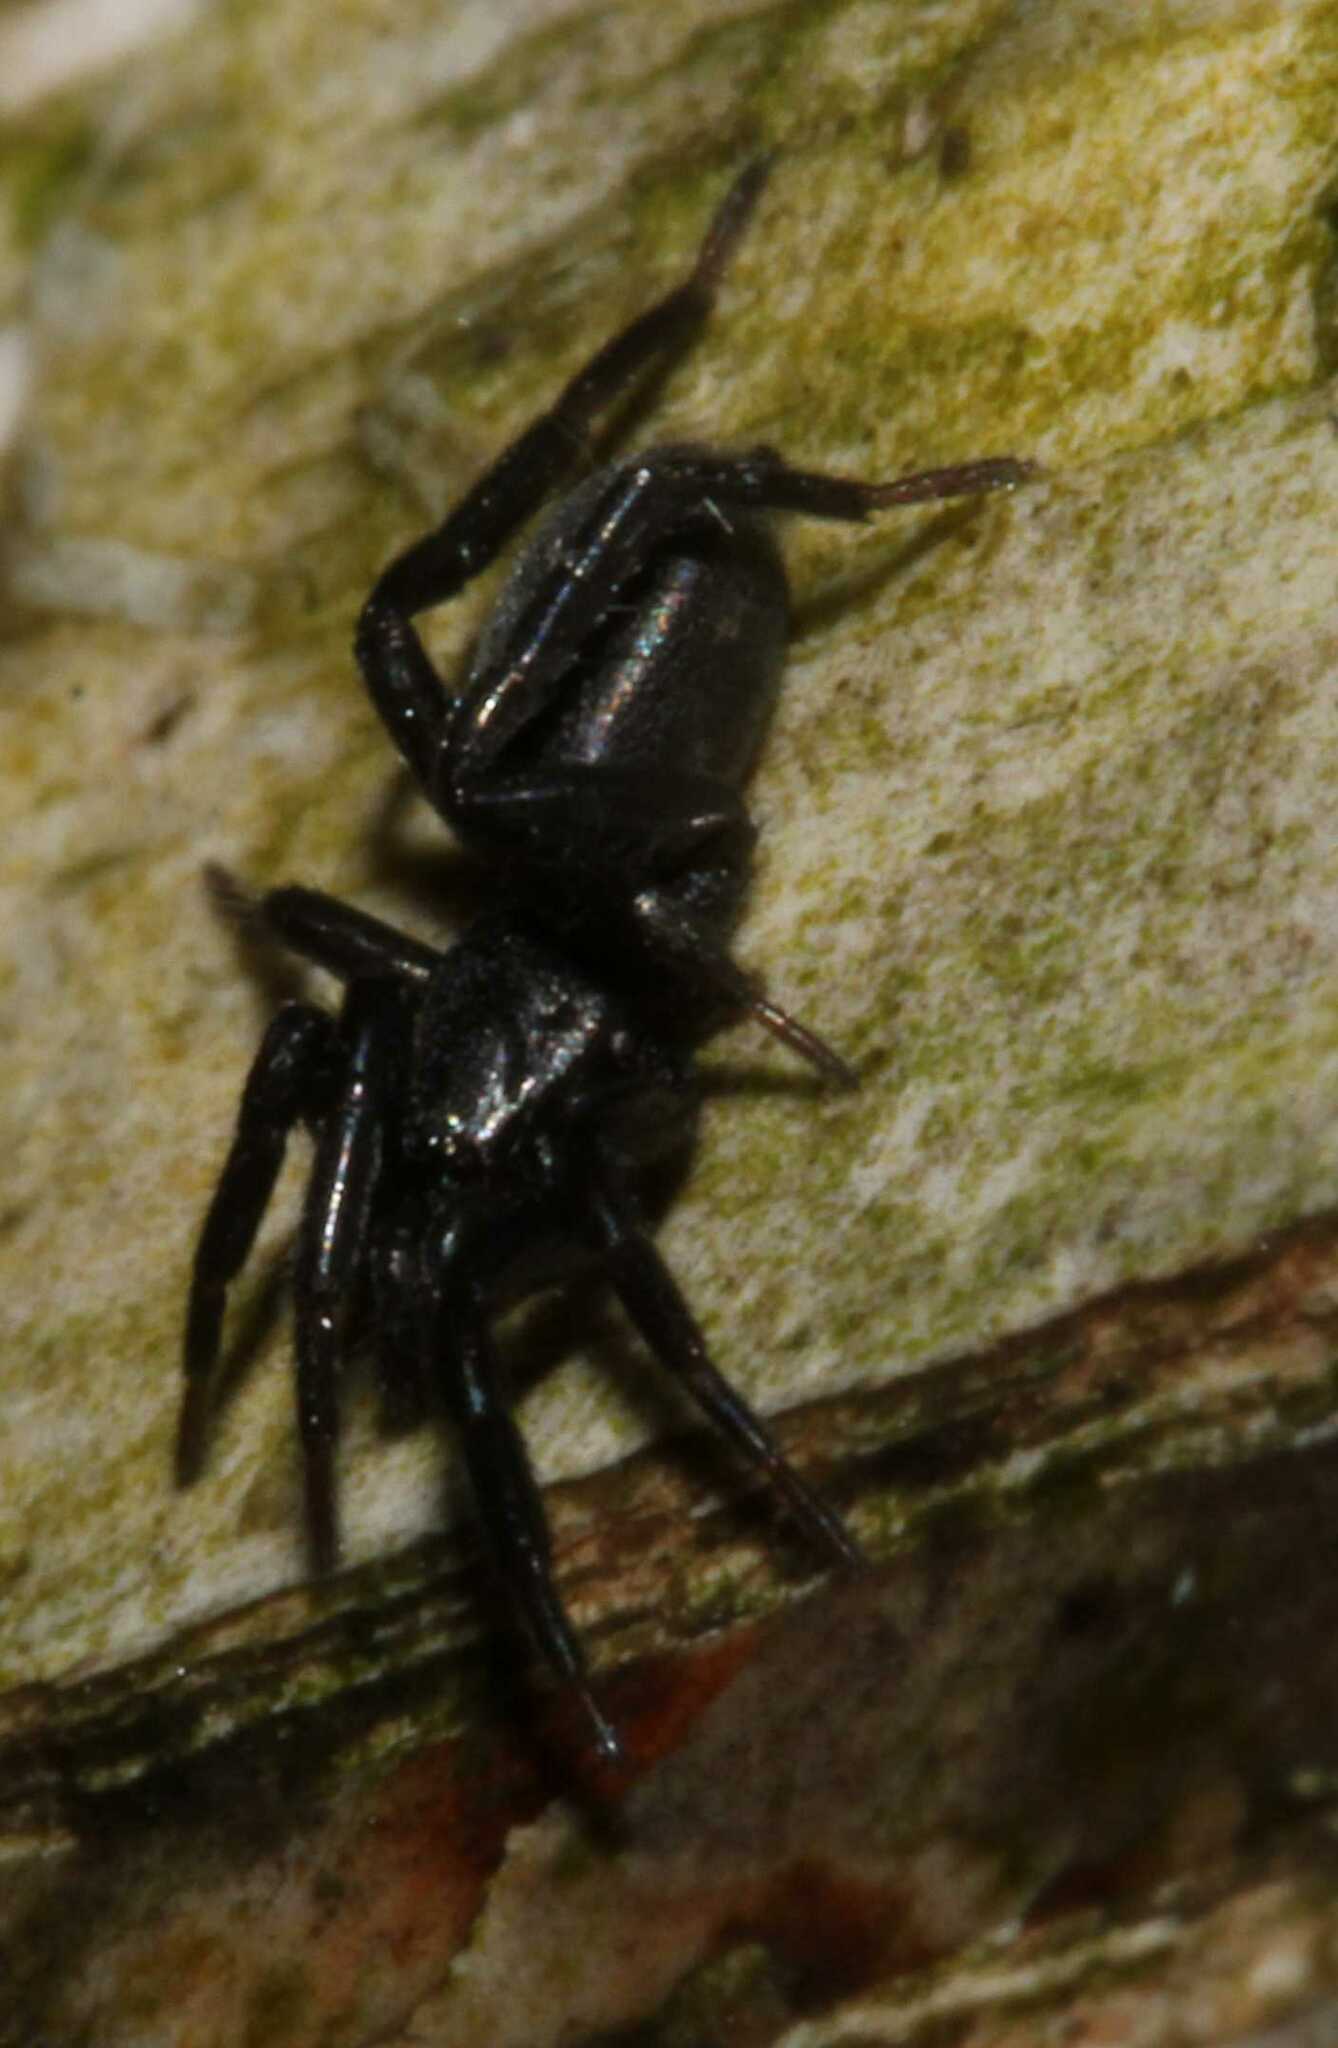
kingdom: Animalia
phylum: Arthropoda
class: Arachnida
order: Araneae
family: Gnaphosidae
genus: Zelotes
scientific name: Zelotes
